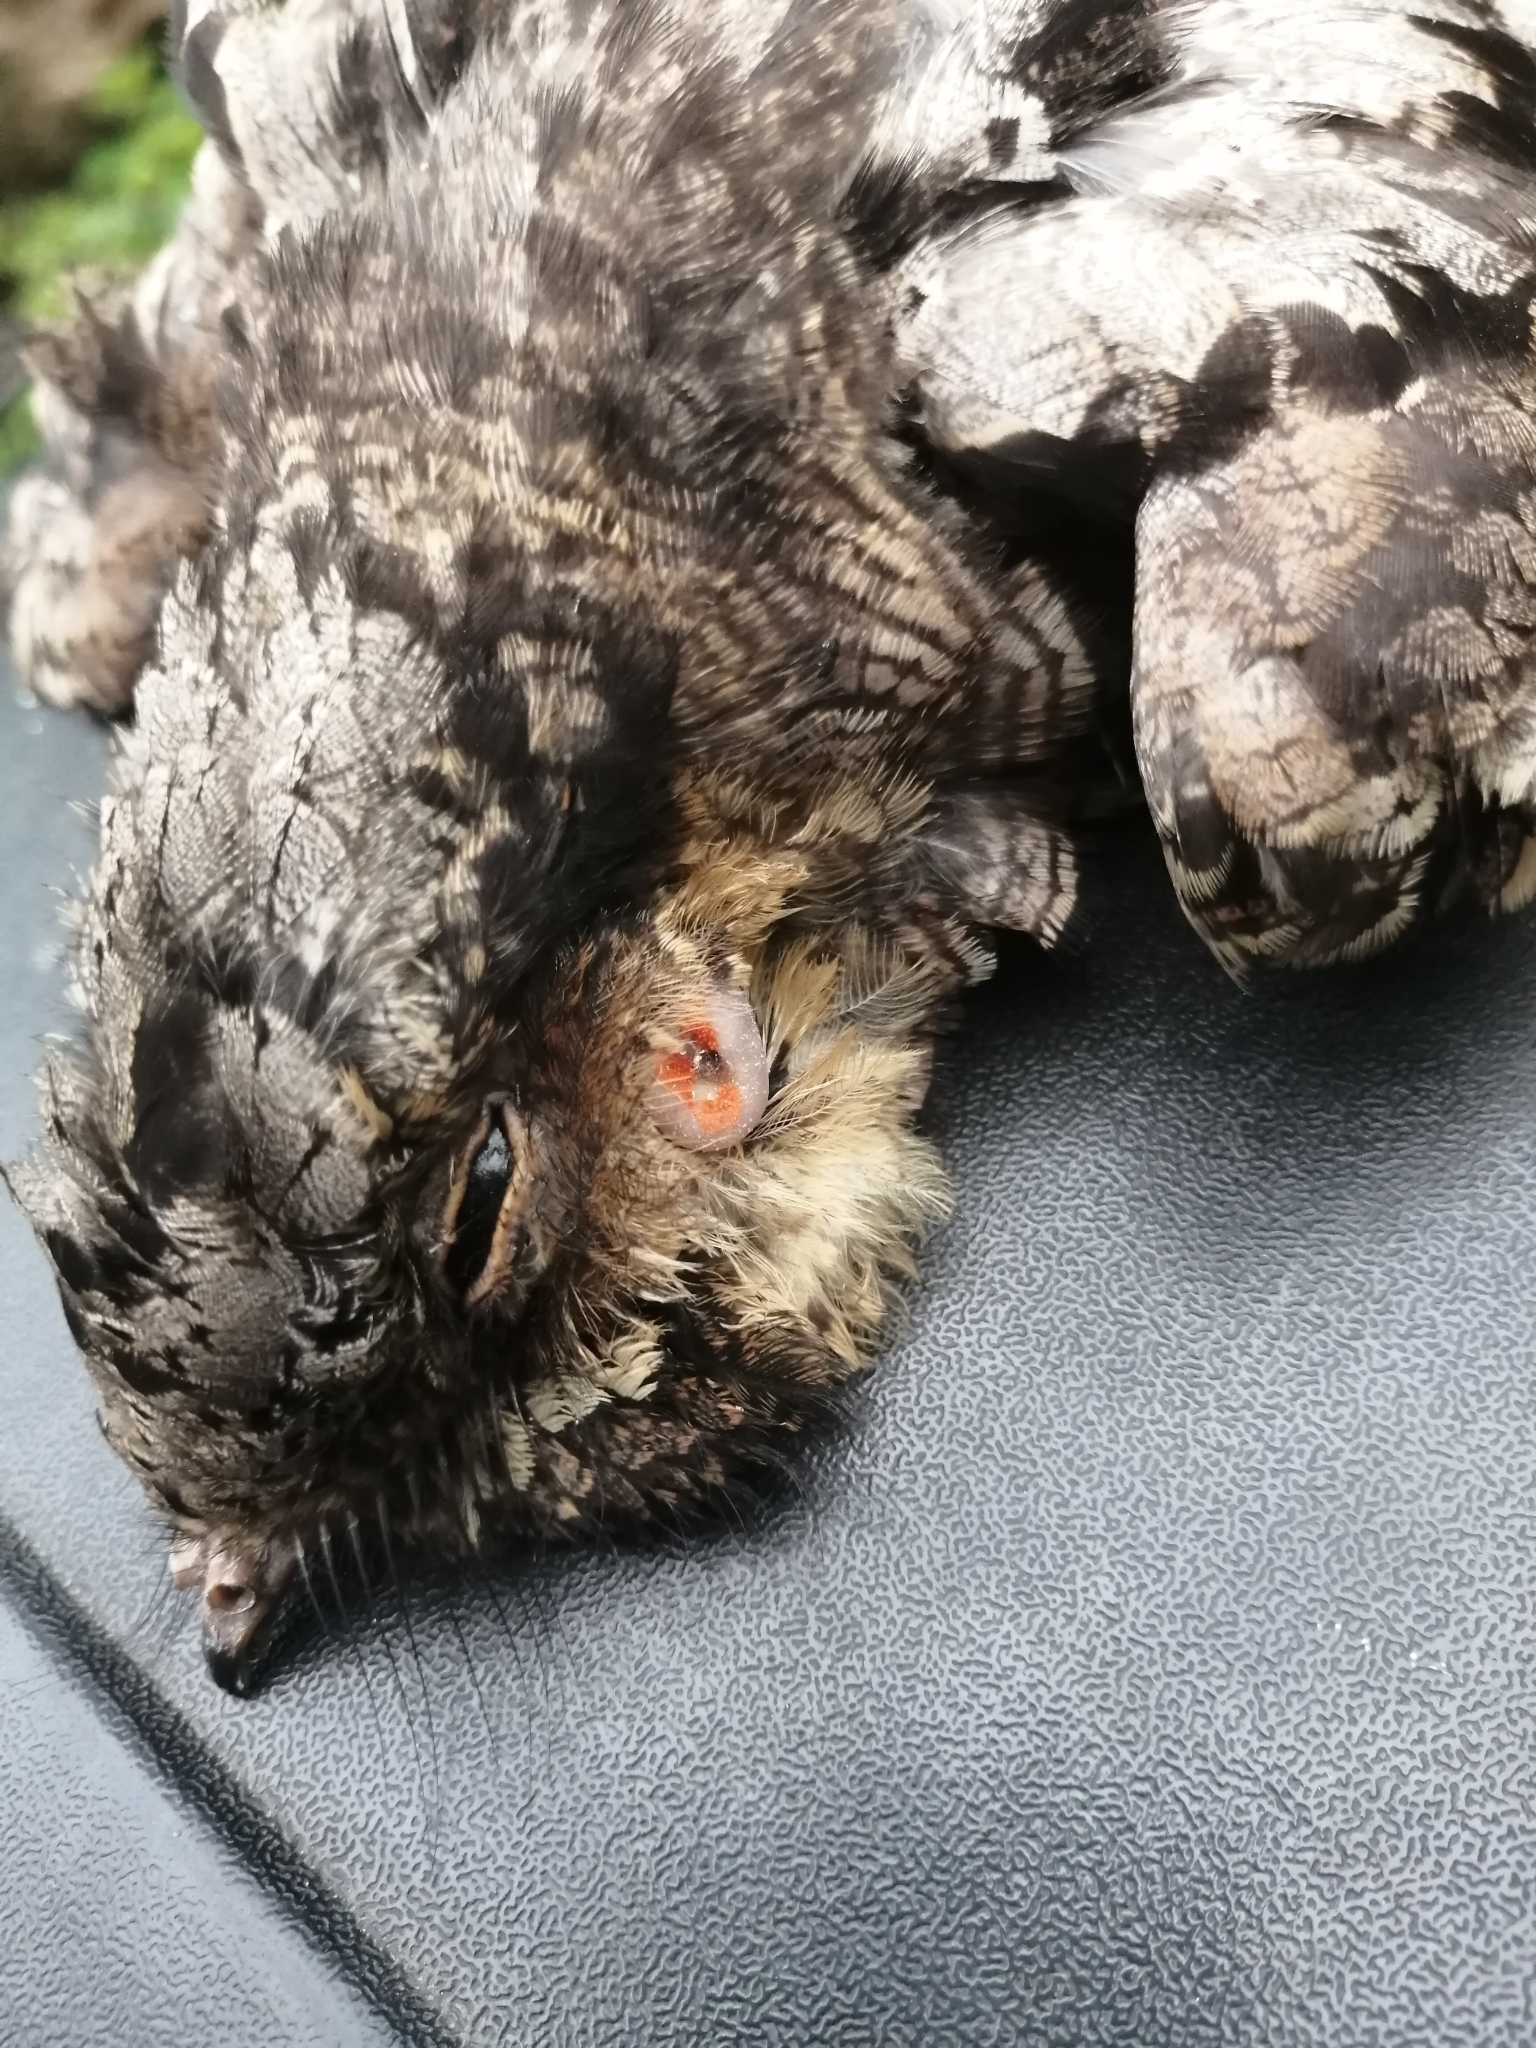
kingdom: Animalia
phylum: Chordata
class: Aves
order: Caprimulgiformes
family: Caprimulgidae
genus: Nyctidromus
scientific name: Nyctidromus albicollis
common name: Pauraque
